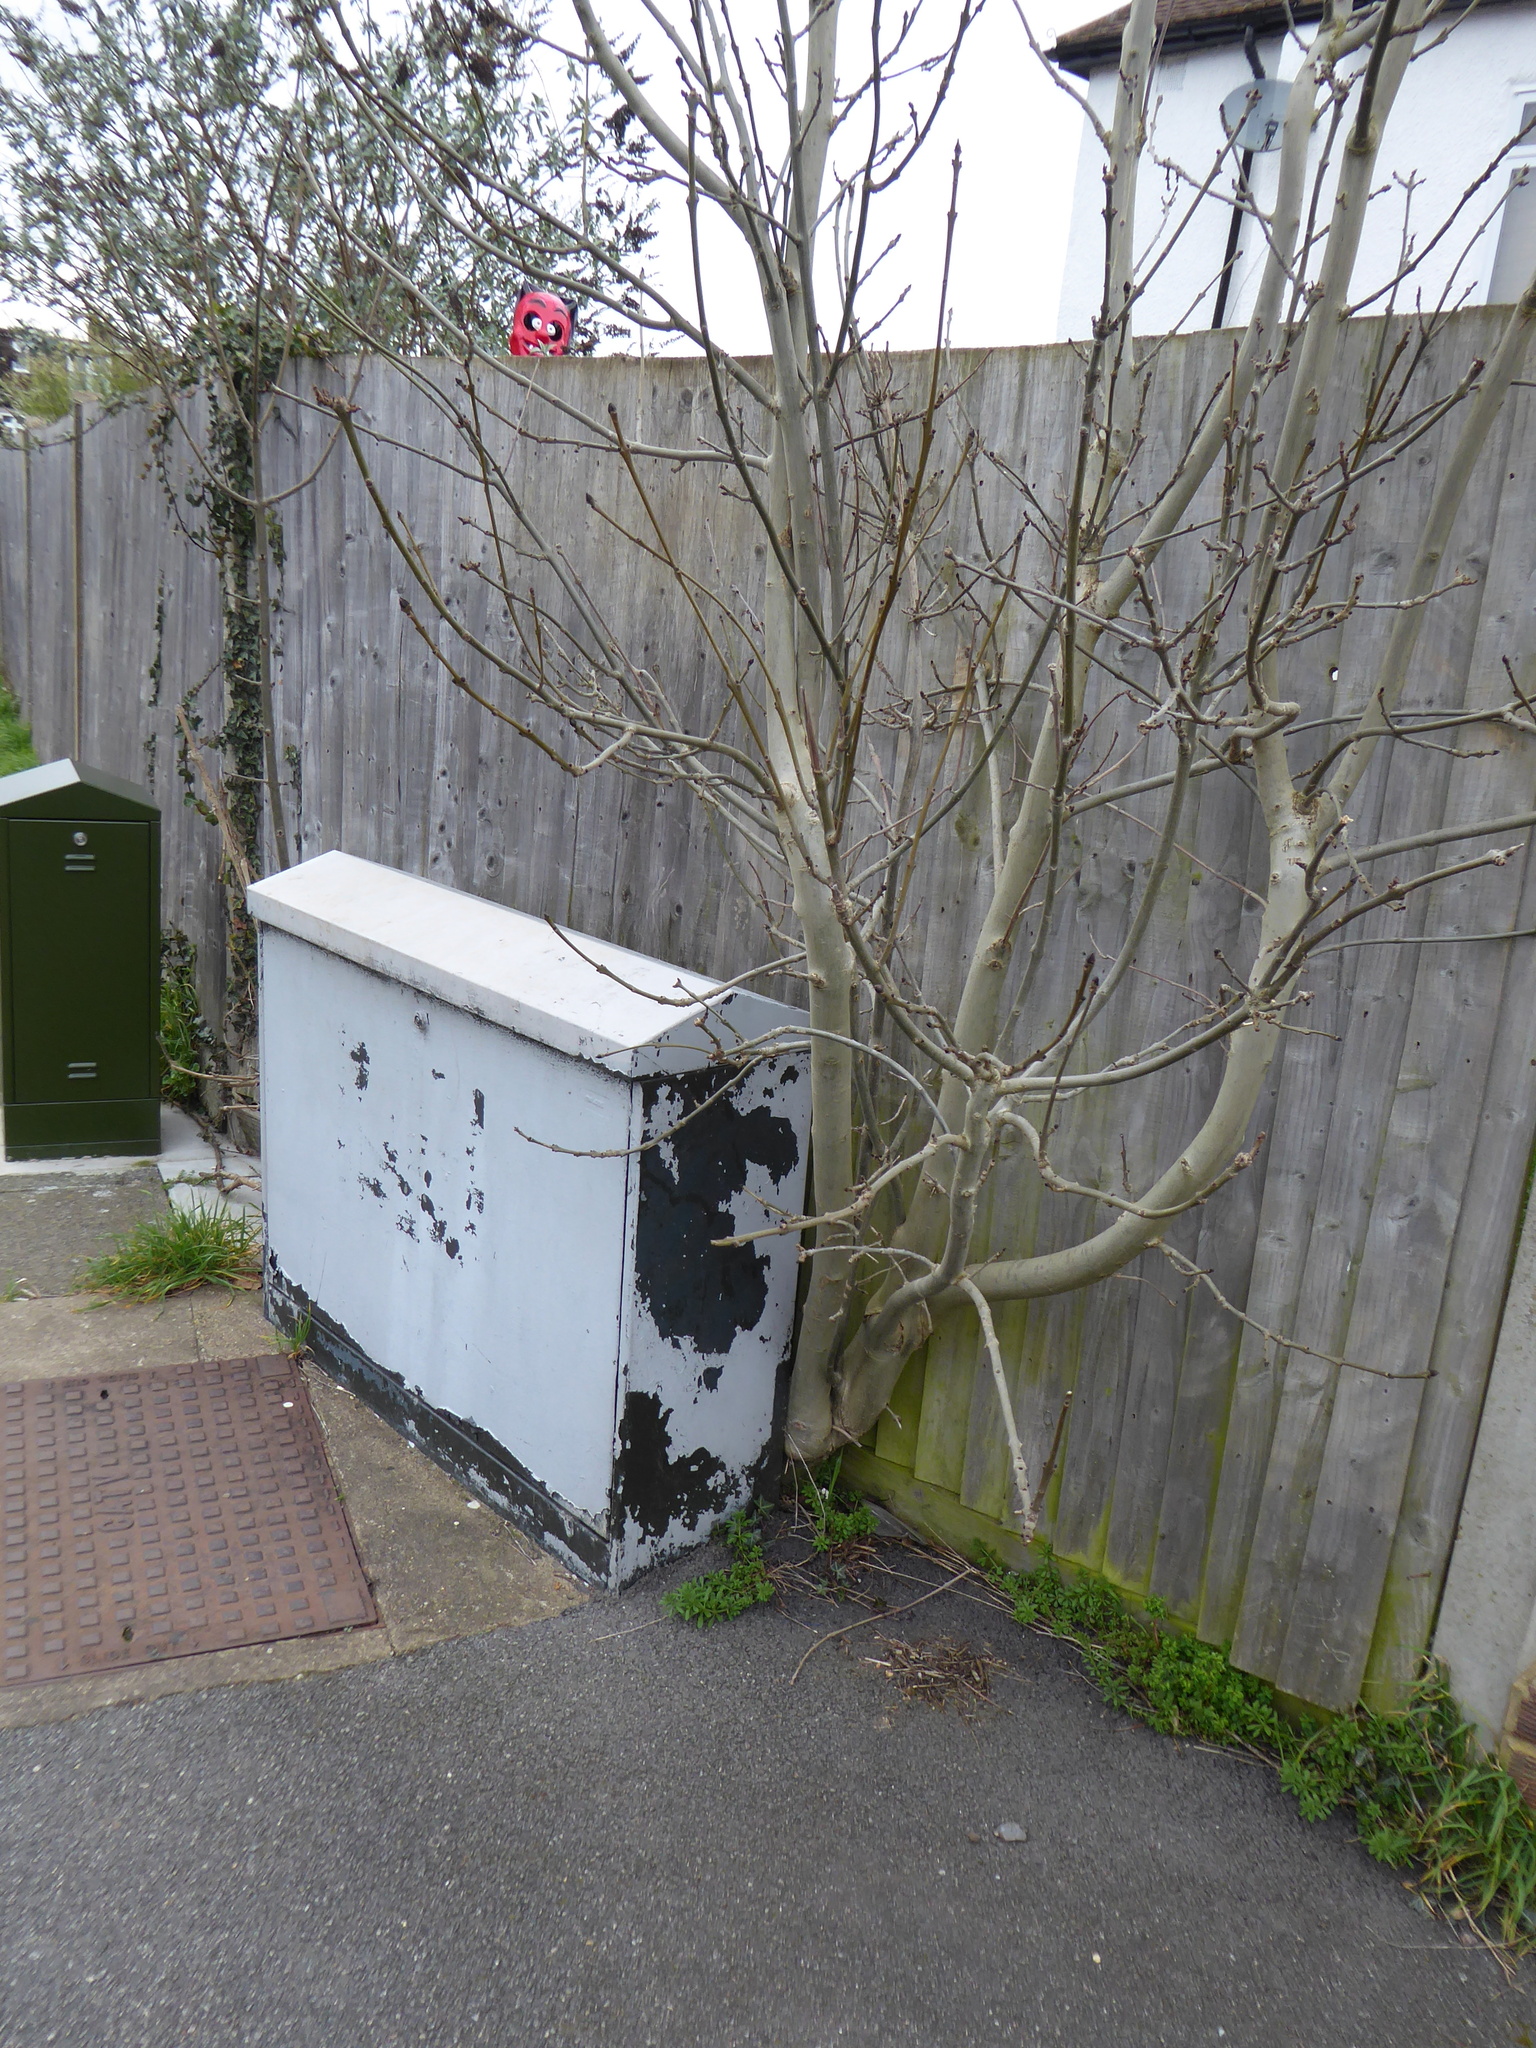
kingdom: Plantae
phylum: Tracheophyta
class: Magnoliopsida
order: Lamiales
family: Oleaceae
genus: Fraxinus
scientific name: Fraxinus excelsior
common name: European ash
